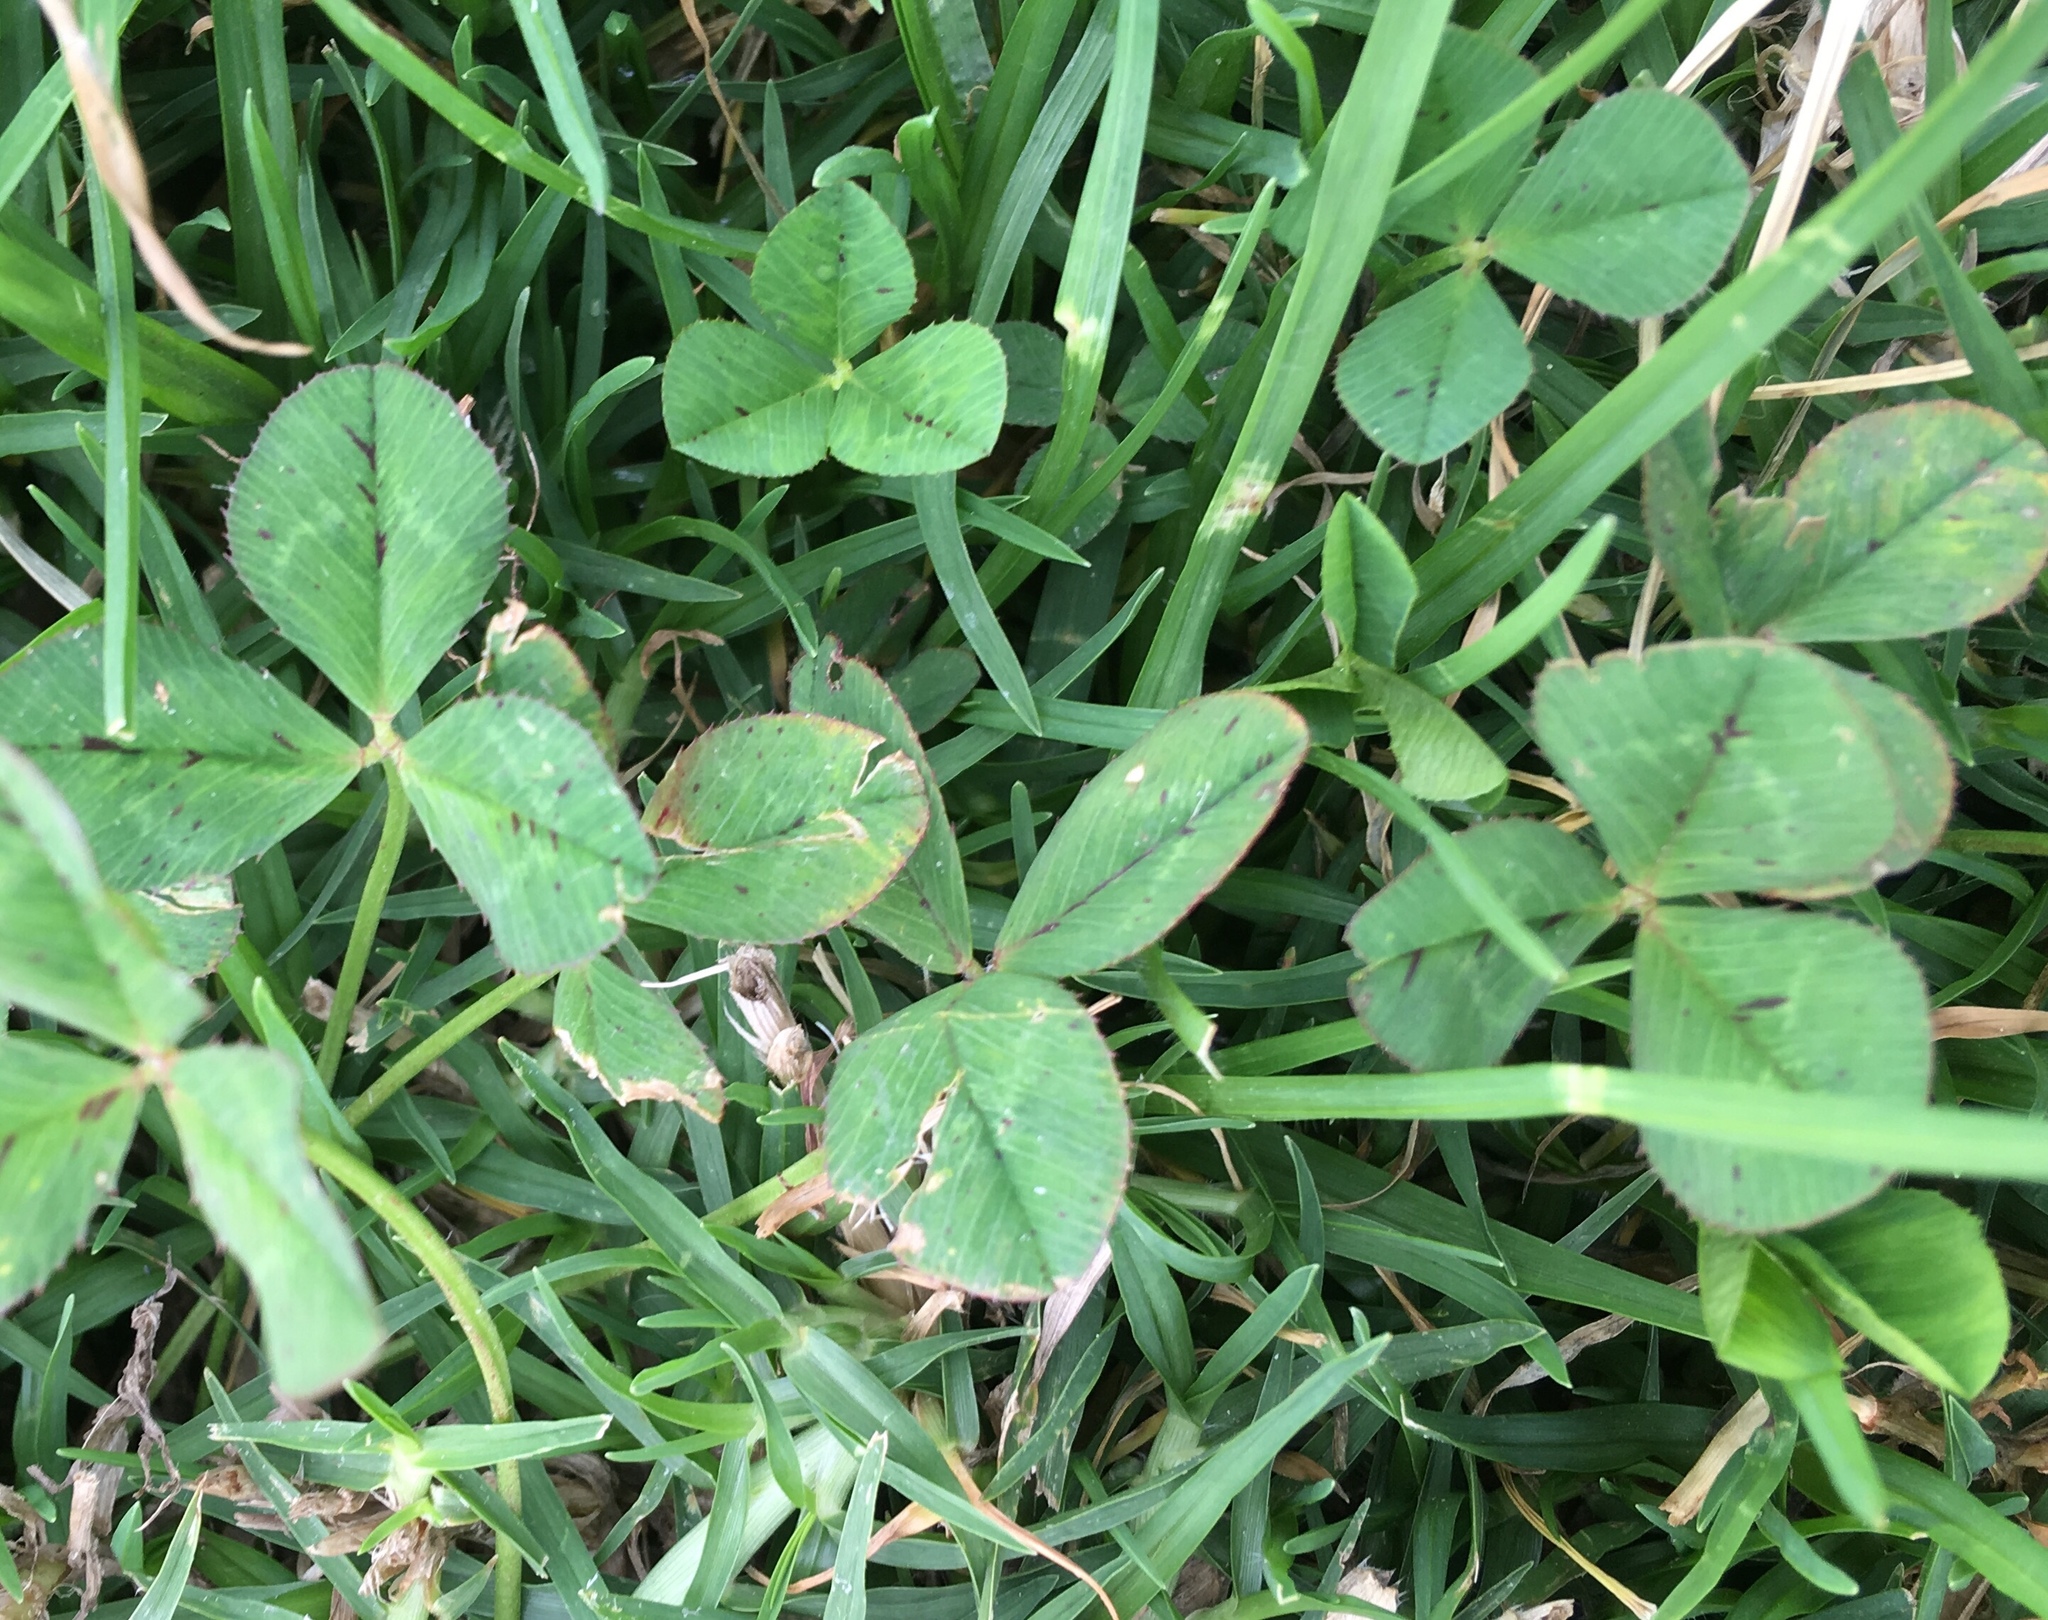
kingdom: Plantae
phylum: Tracheophyta
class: Magnoliopsida
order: Fabales
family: Fabaceae
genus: Trifolium
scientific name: Trifolium repens
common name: White clover
